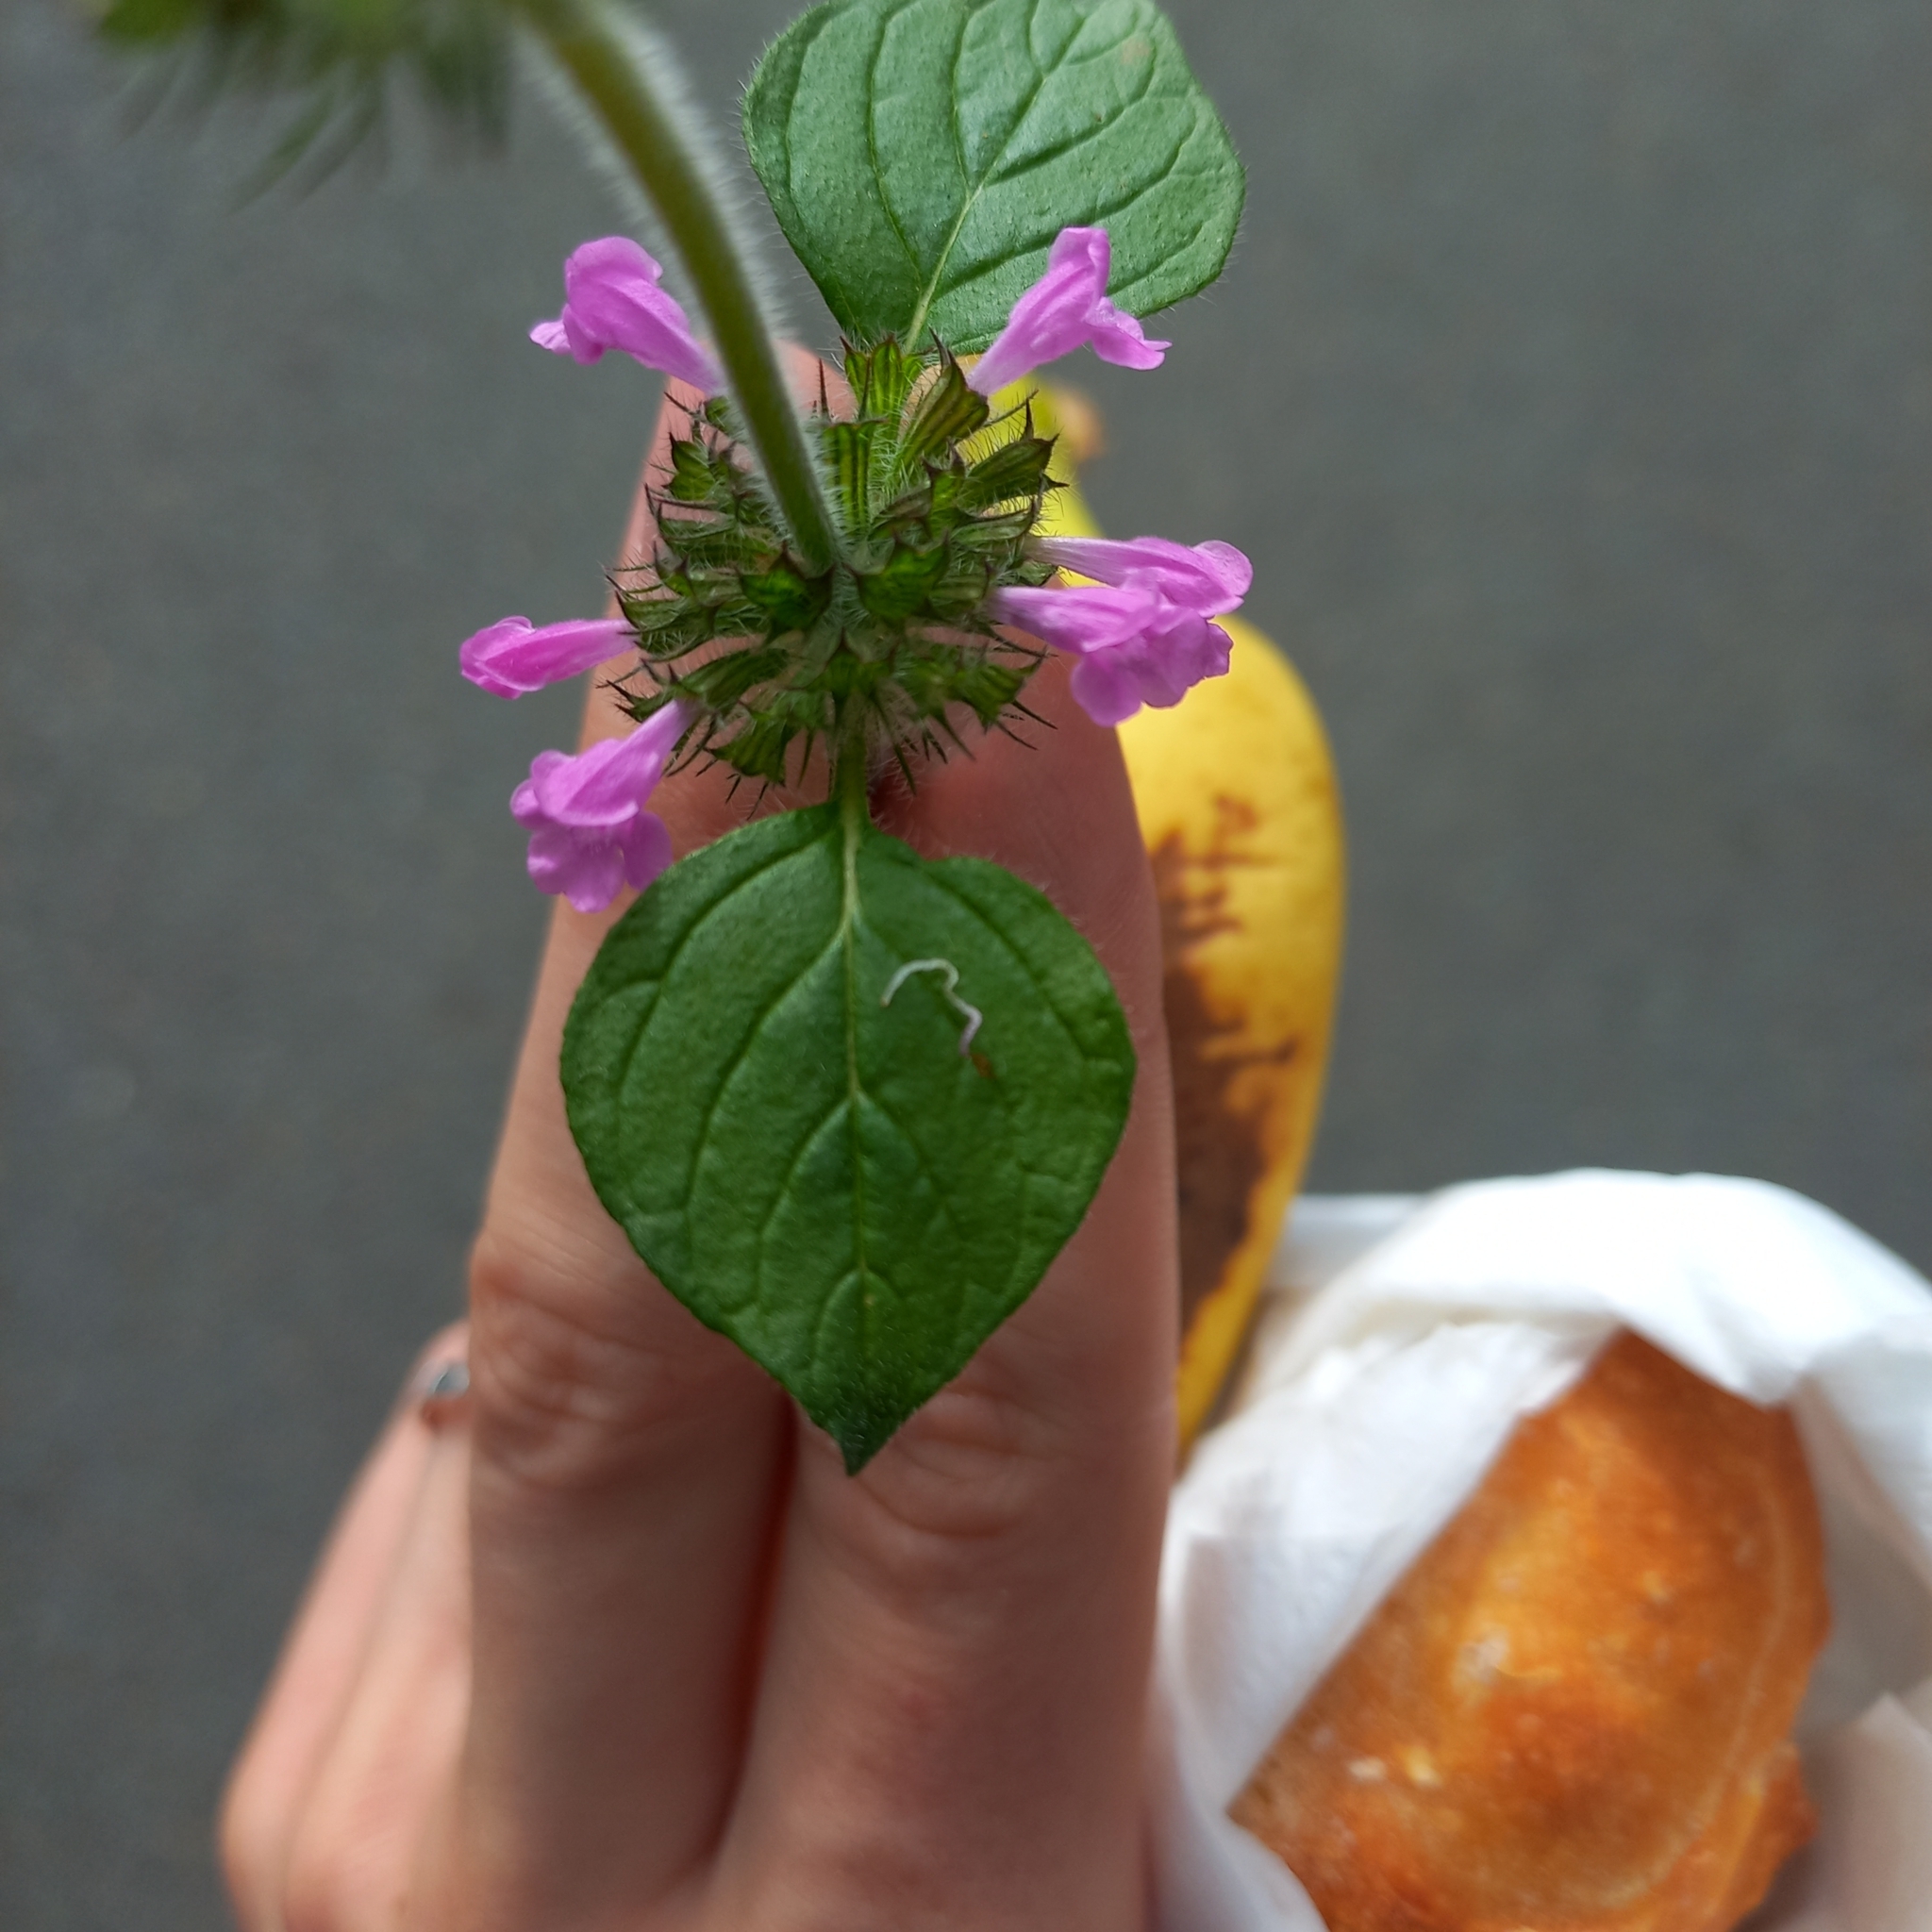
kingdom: Plantae
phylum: Tracheophyta
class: Magnoliopsida
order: Lamiales
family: Lamiaceae
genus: Clinopodium
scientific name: Clinopodium vulgare
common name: Wild basil
